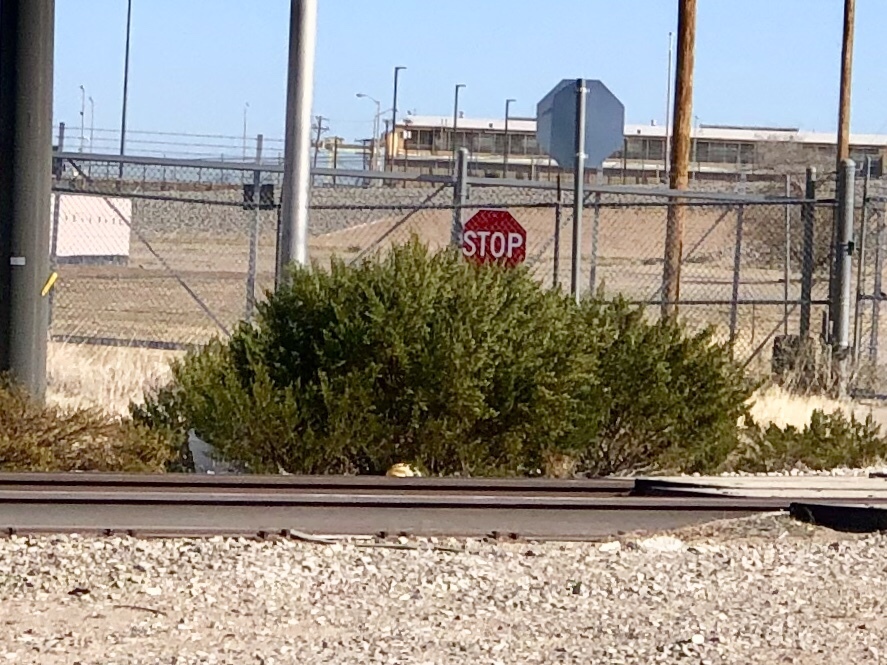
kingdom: Plantae
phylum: Tracheophyta
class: Magnoliopsida
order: Zygophyllales
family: Zygophyllaceae
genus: Larrea
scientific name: Larrea tridentata
